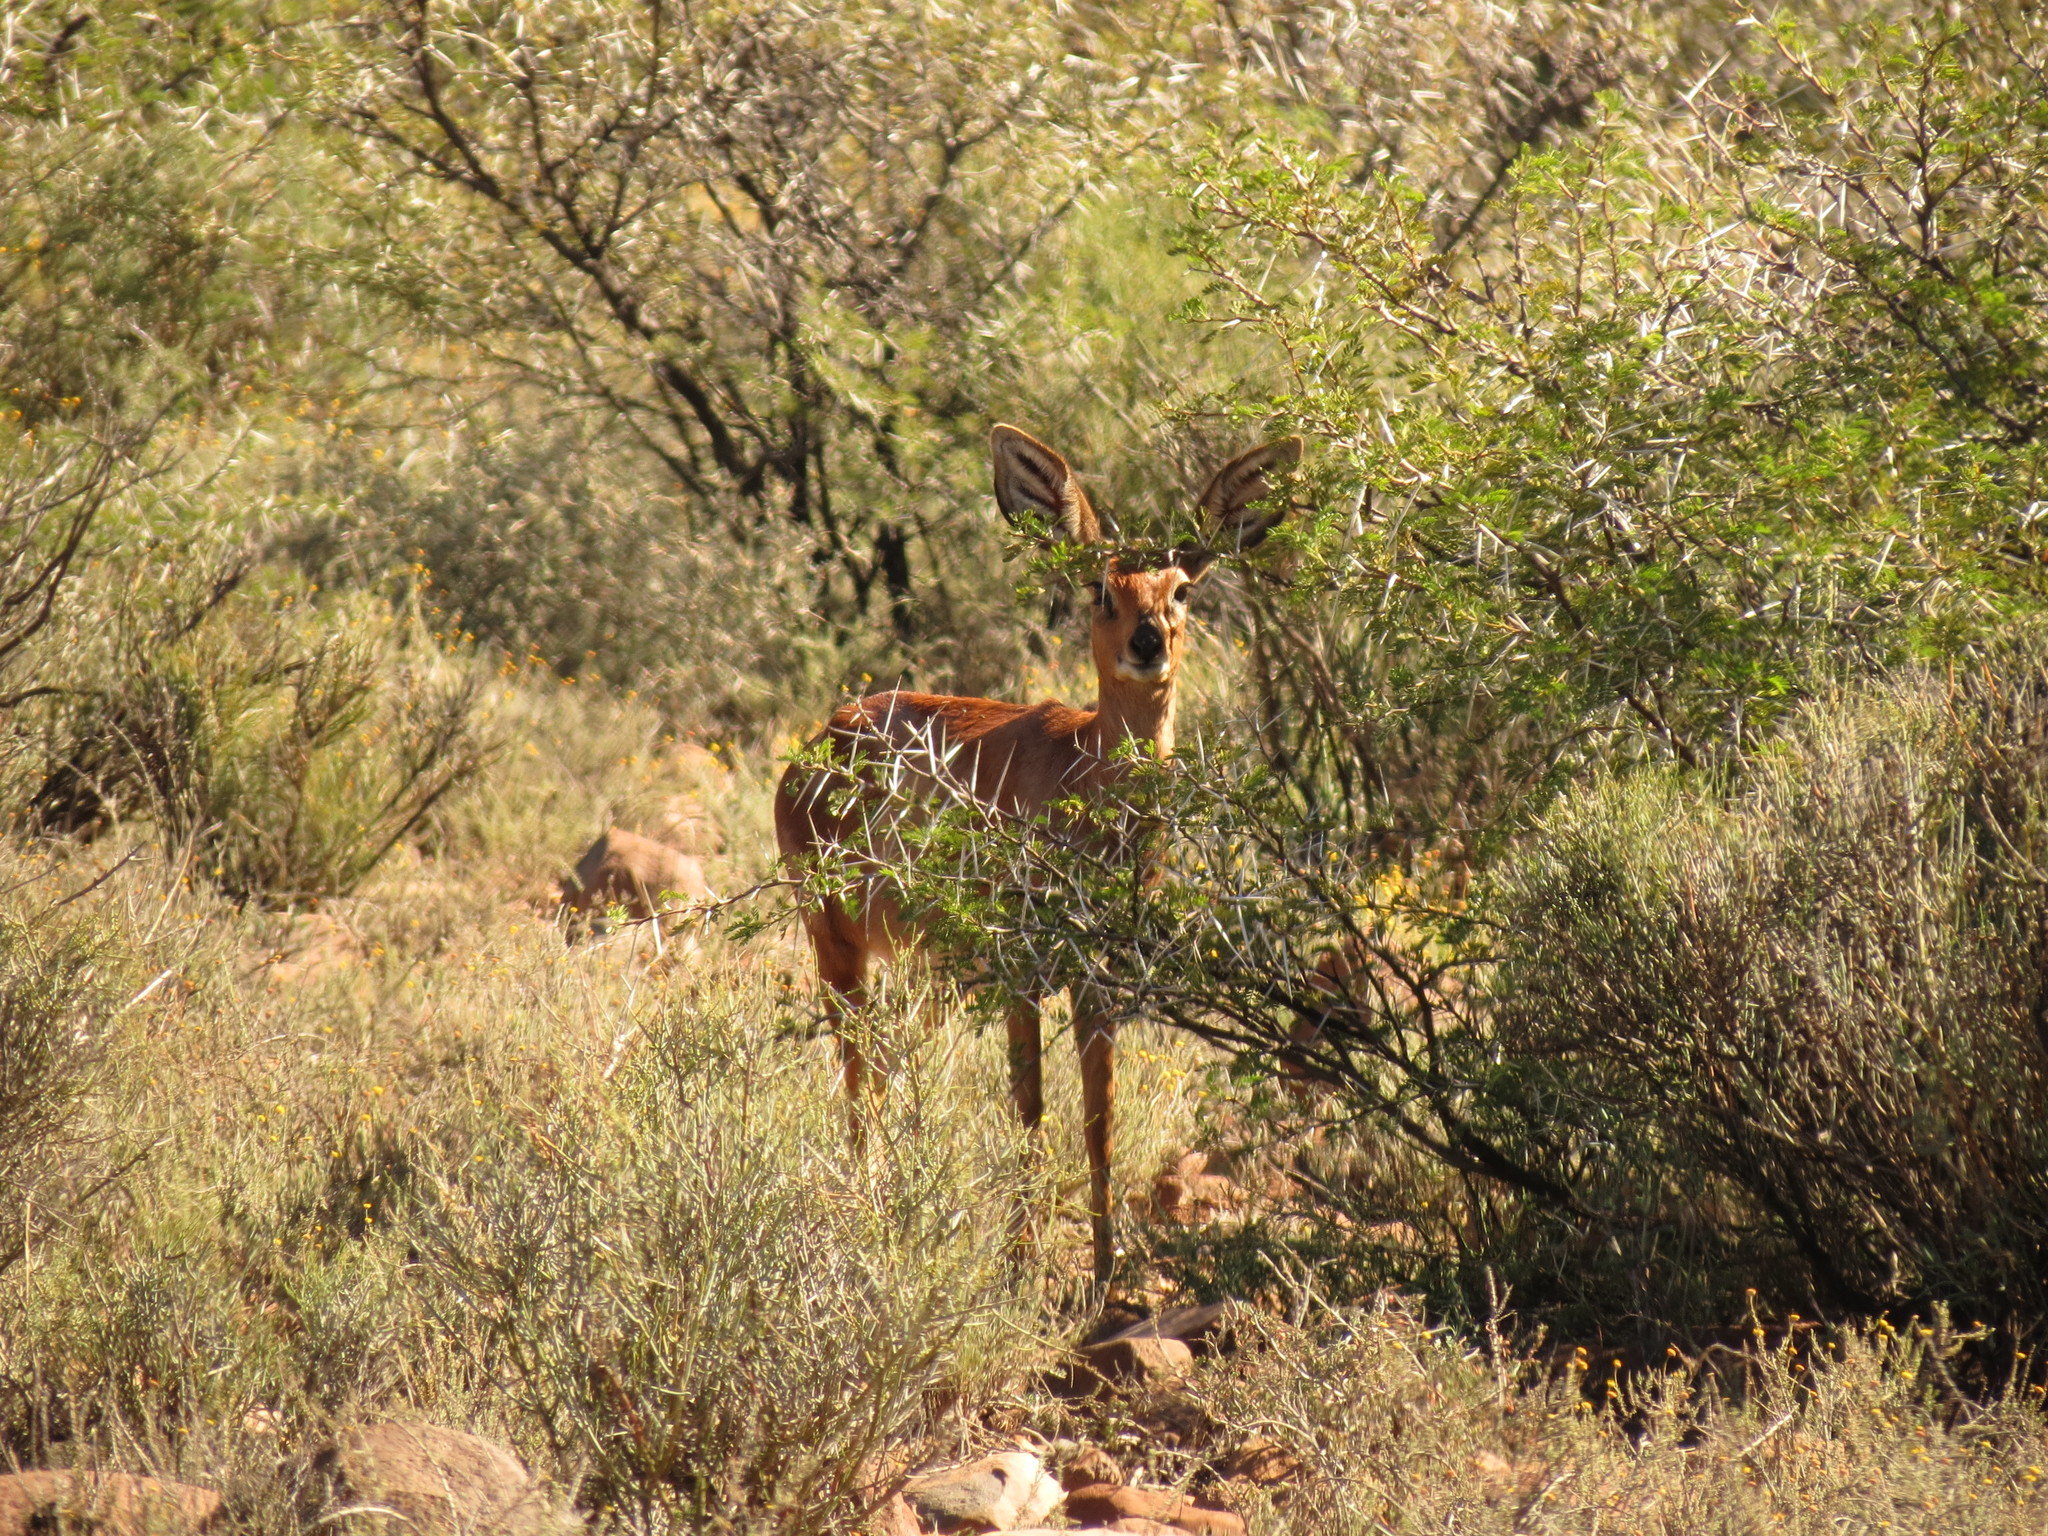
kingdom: Animalia
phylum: Chordata
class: Mammalia
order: Artiodactyla
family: Bovidae
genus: Raphicerus
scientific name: Raphicerus campestris
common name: Steenbok
